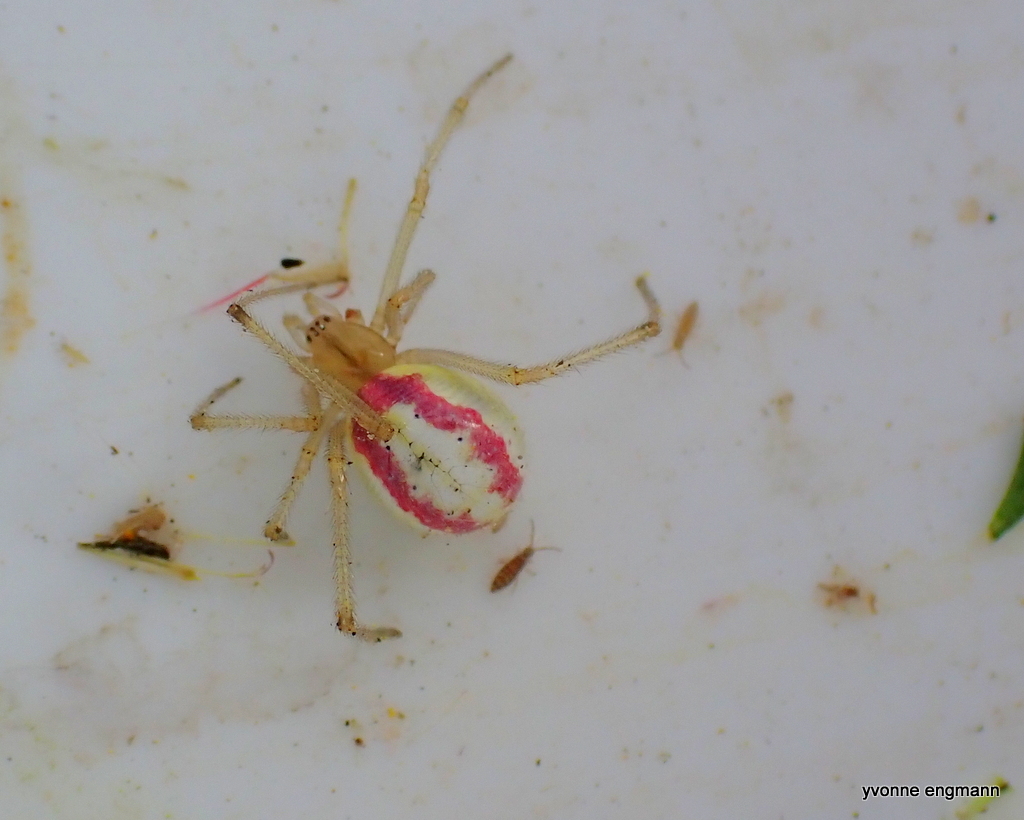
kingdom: Animalia
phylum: Arthropoda
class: Arachnida
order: Araneae
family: Theridiidae
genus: Enoplognatha
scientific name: Enoplognatha ovata
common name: Common candy-striped spider
